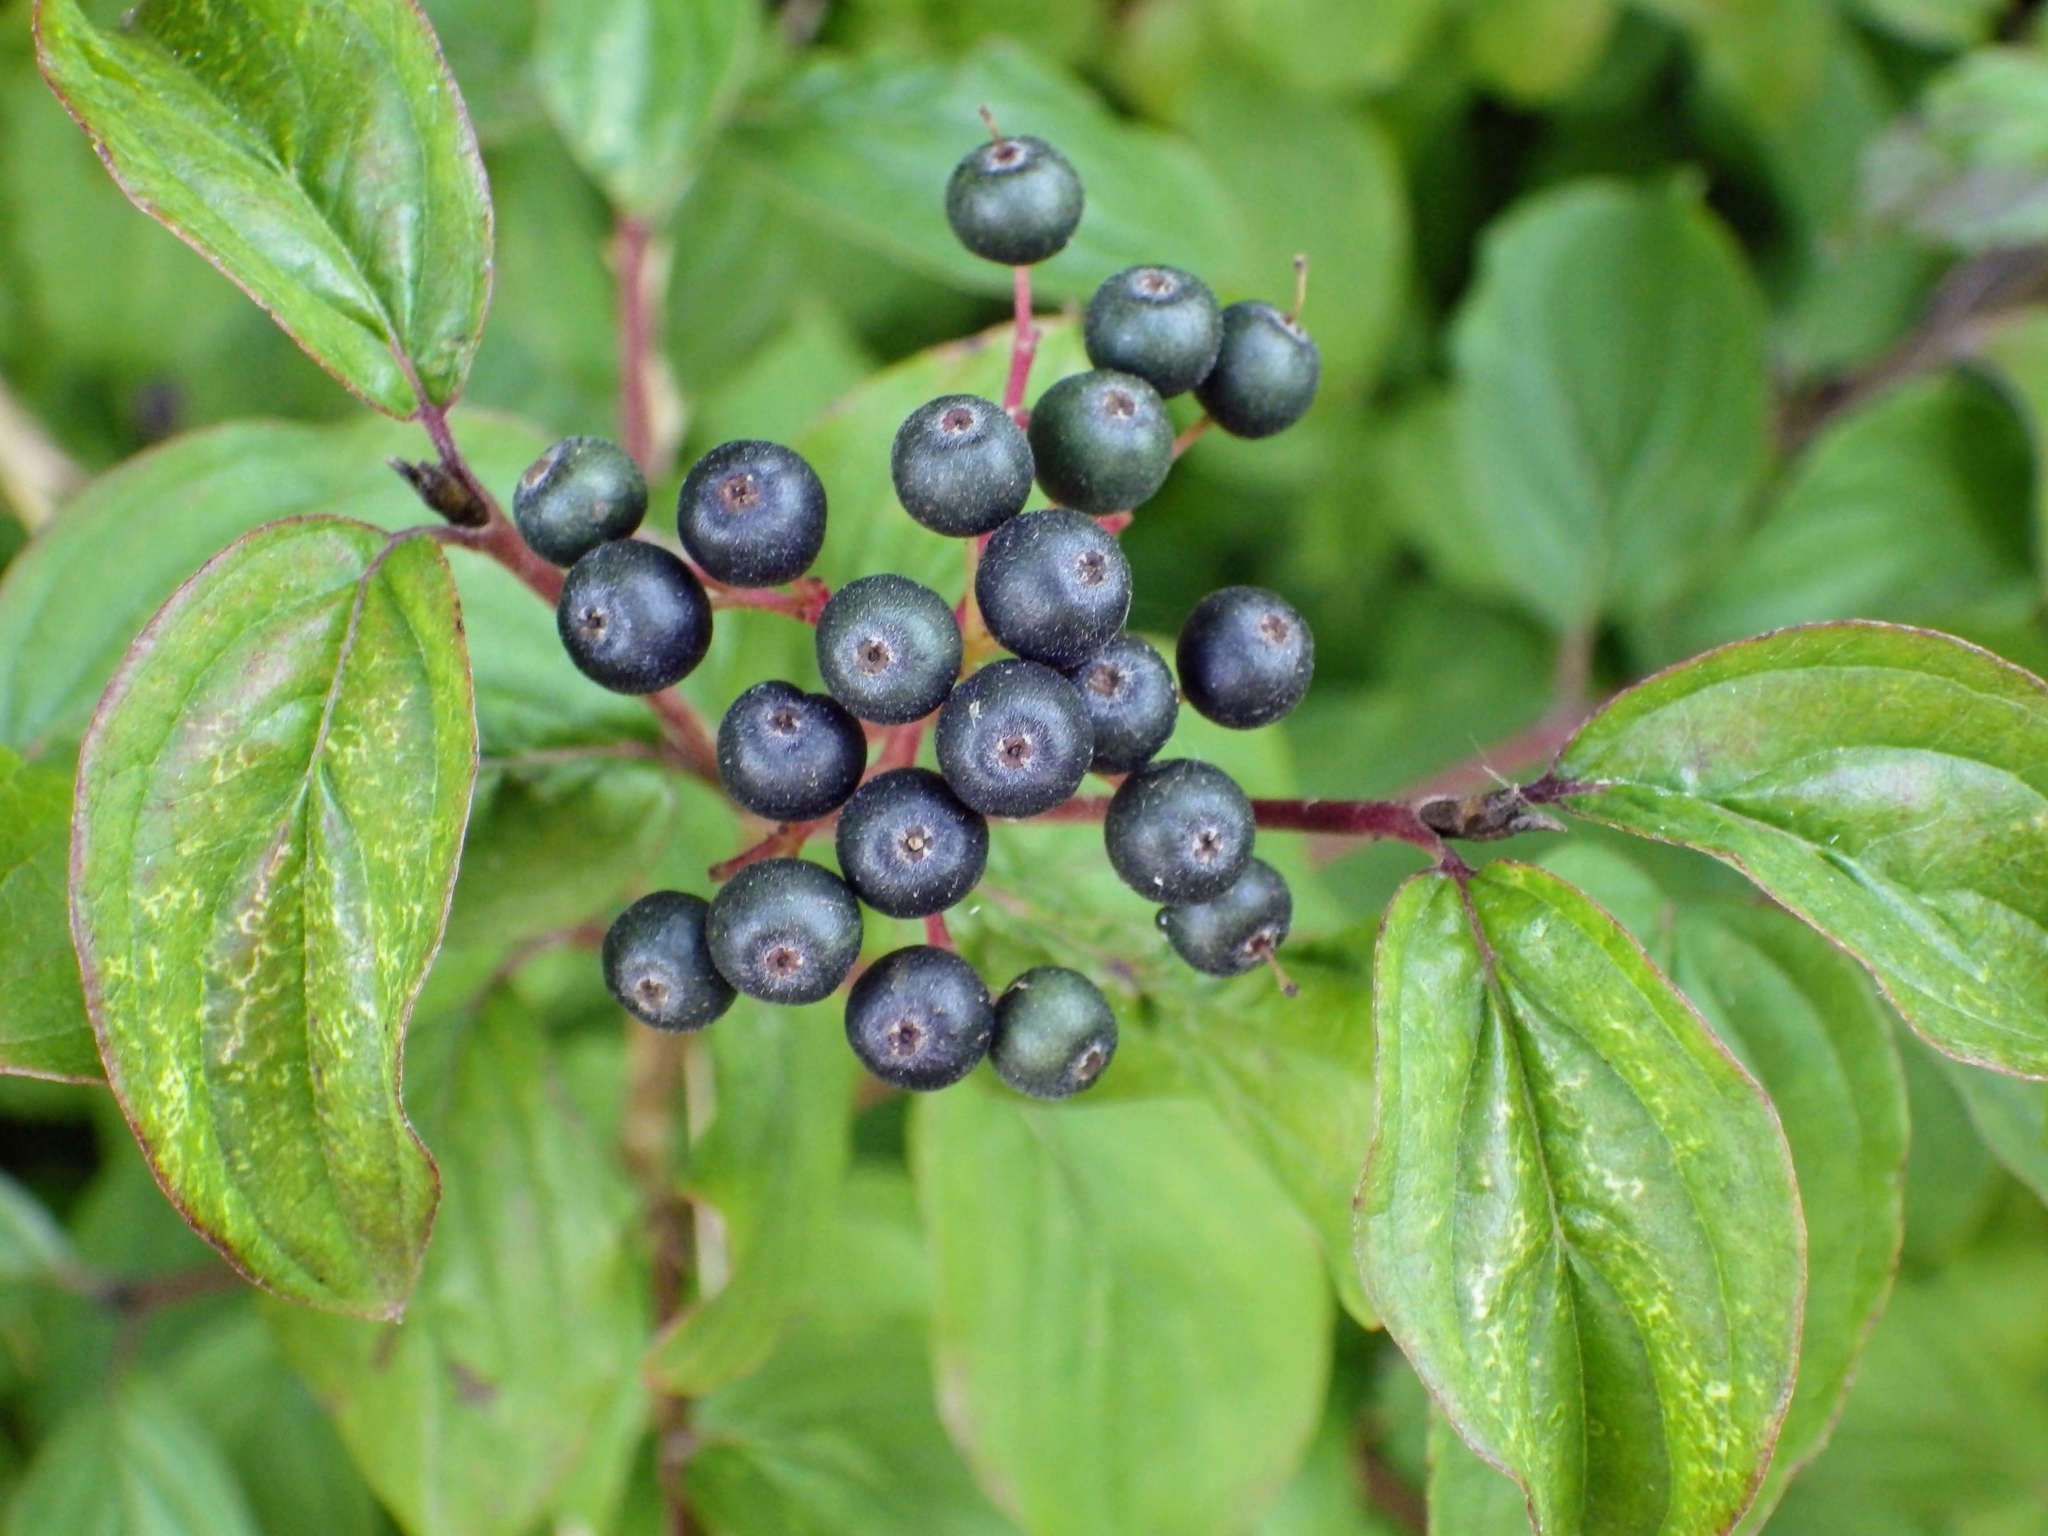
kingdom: Plantae
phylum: Tracheophyta
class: Magnoliopsida
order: Cornales
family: Cornaceae
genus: Cornus
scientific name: Cornus sanguinea
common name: Dogwood
